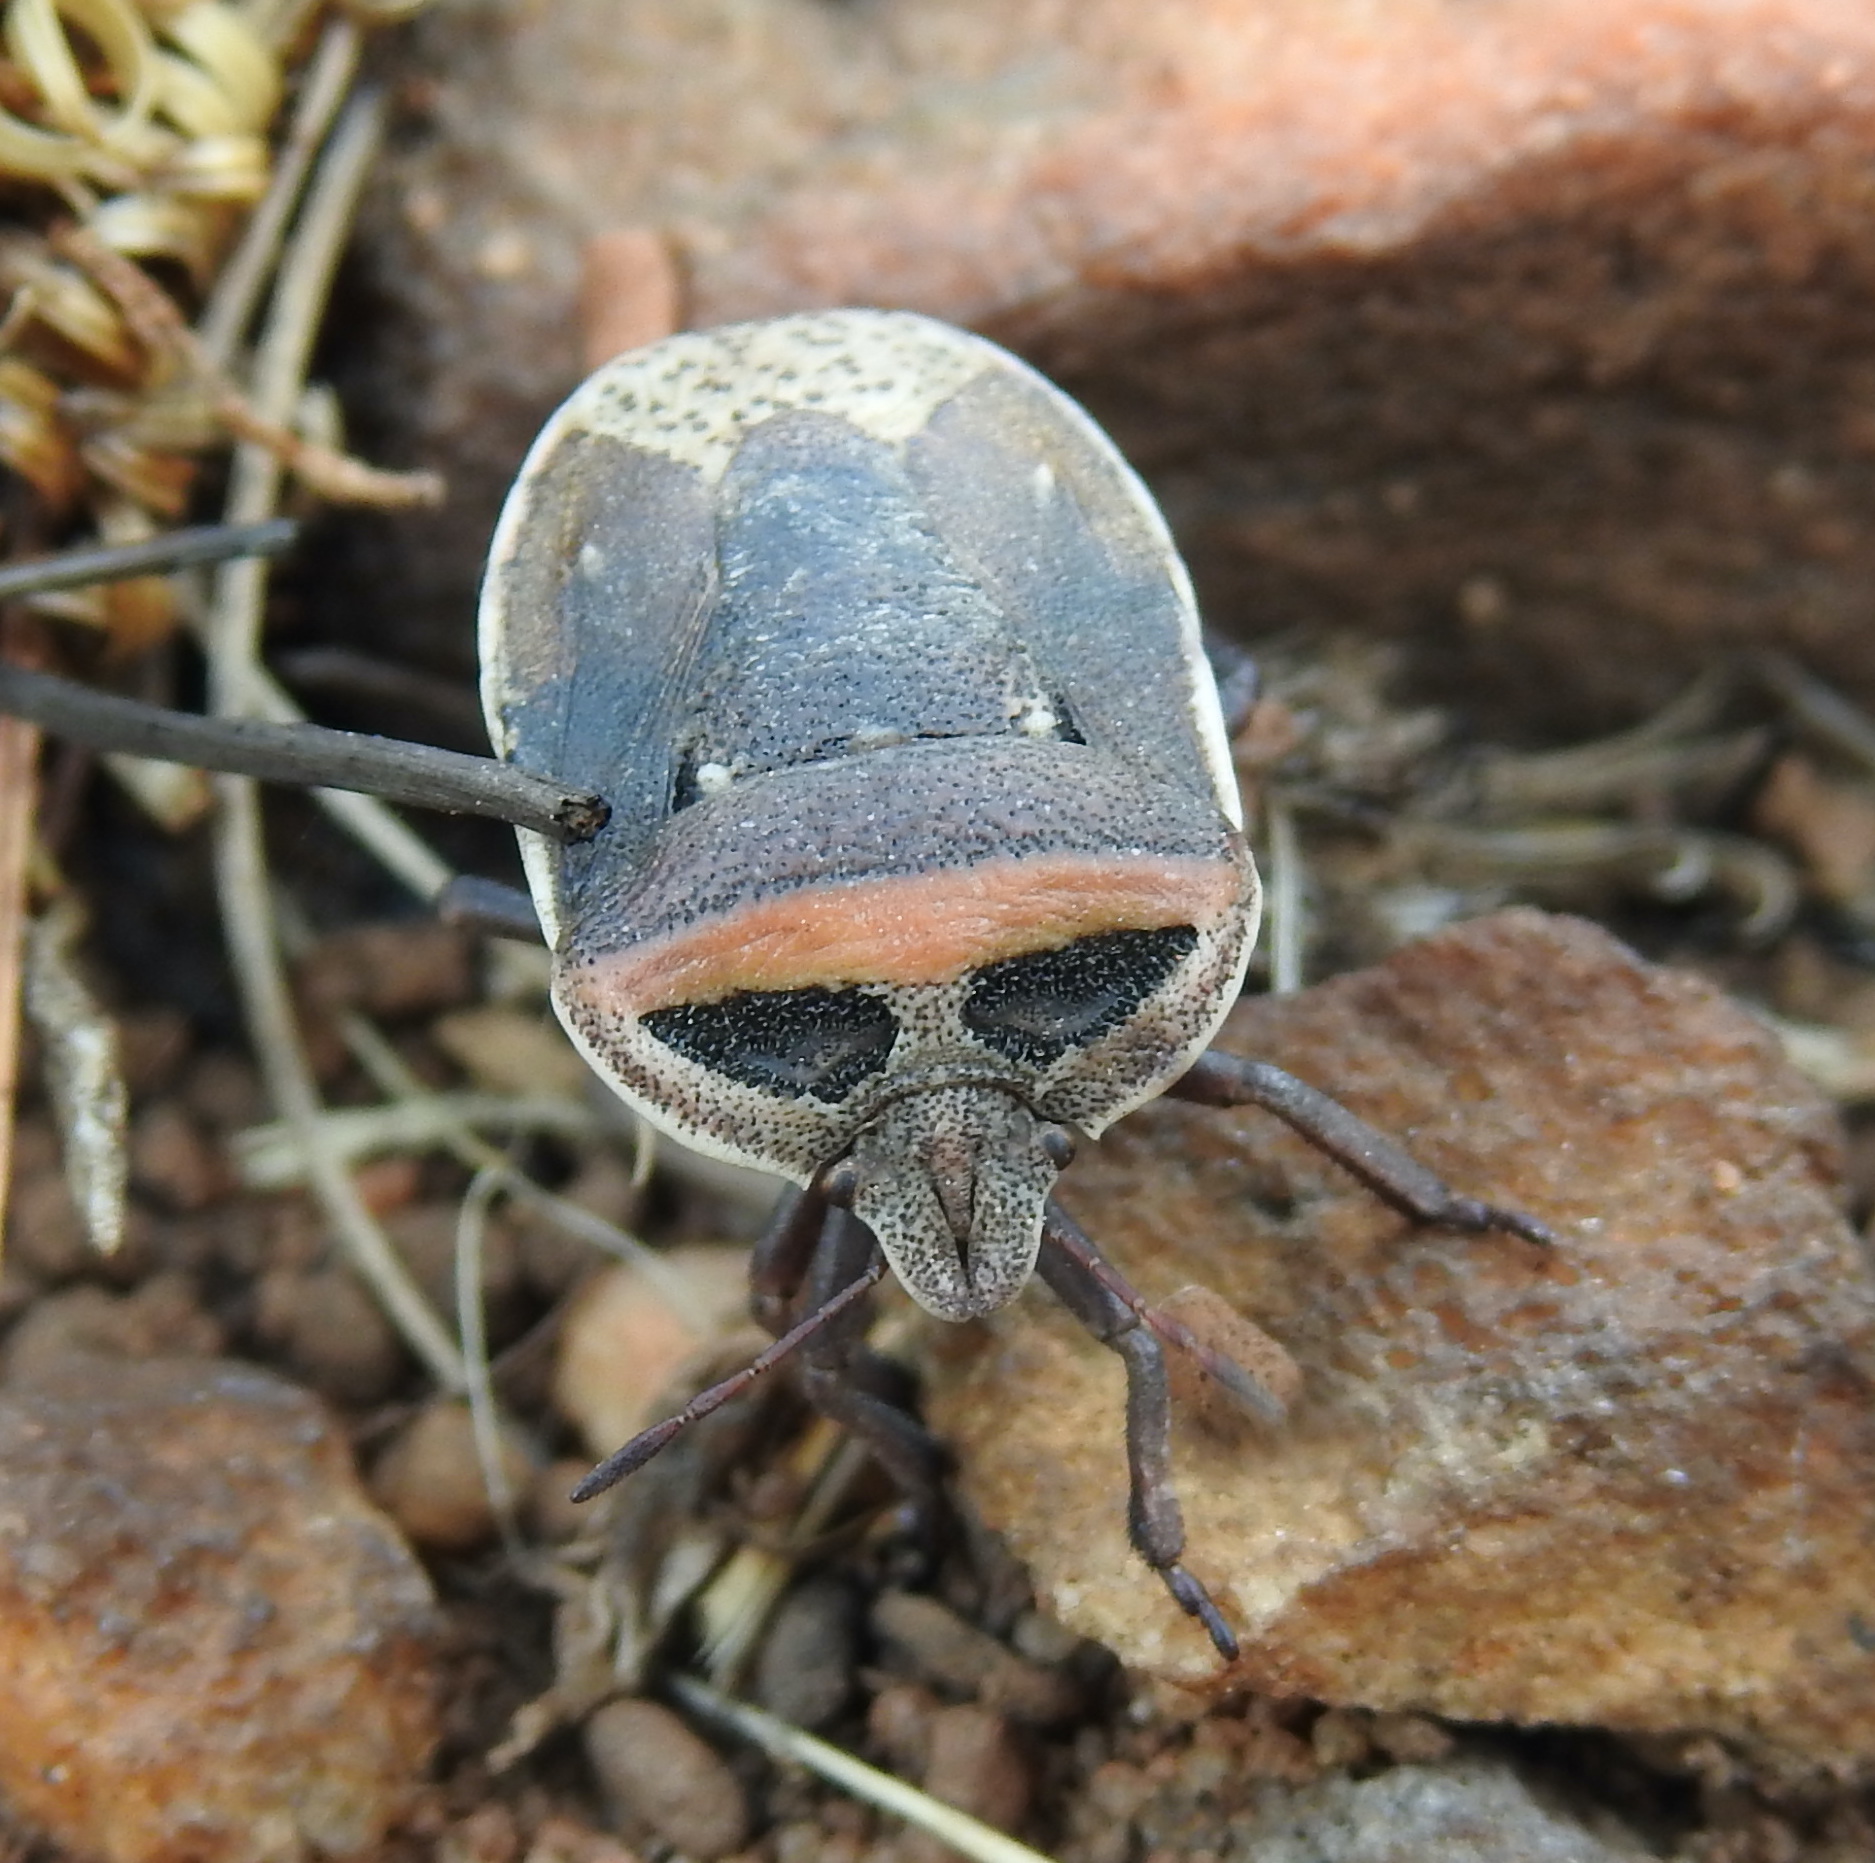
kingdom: Animalia
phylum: Arthropoda
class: Insecta
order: Hemiptera
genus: Eonymia
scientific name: Eonymia
